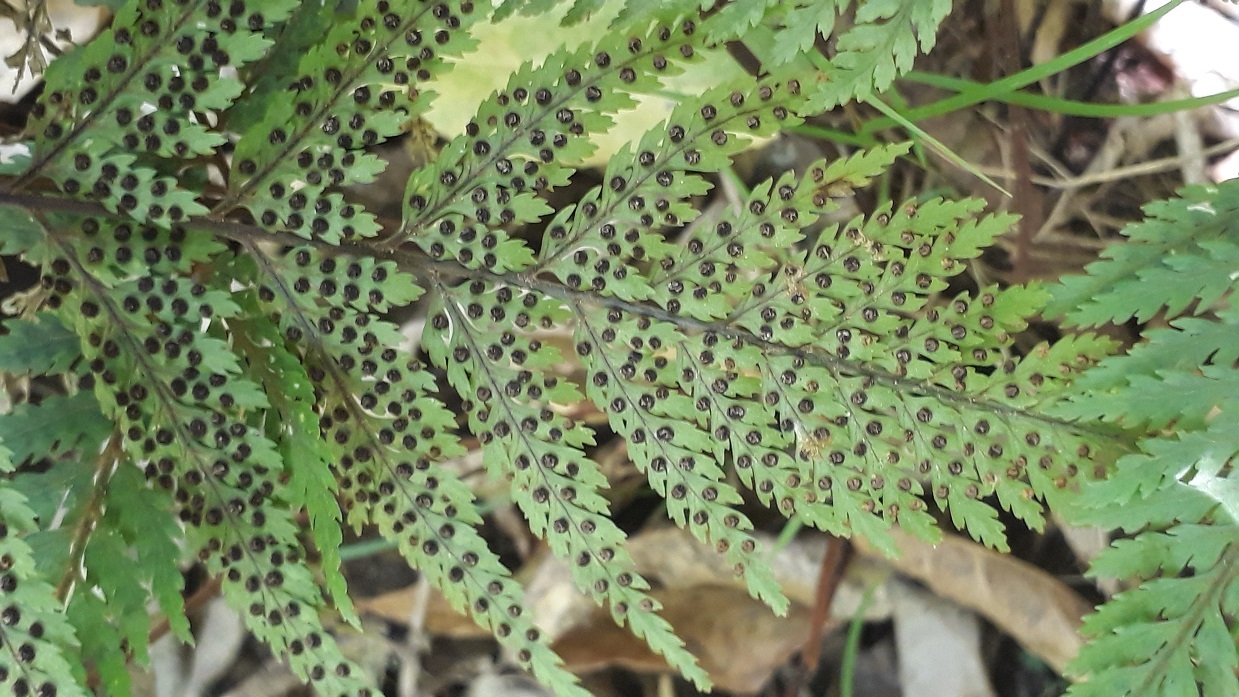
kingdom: Plantae
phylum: Tracheophyta
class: Polypodiopsida
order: Polypodiales
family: Dryopteridaceae
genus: Parapolystichum
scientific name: Parapolystichum glabellum
